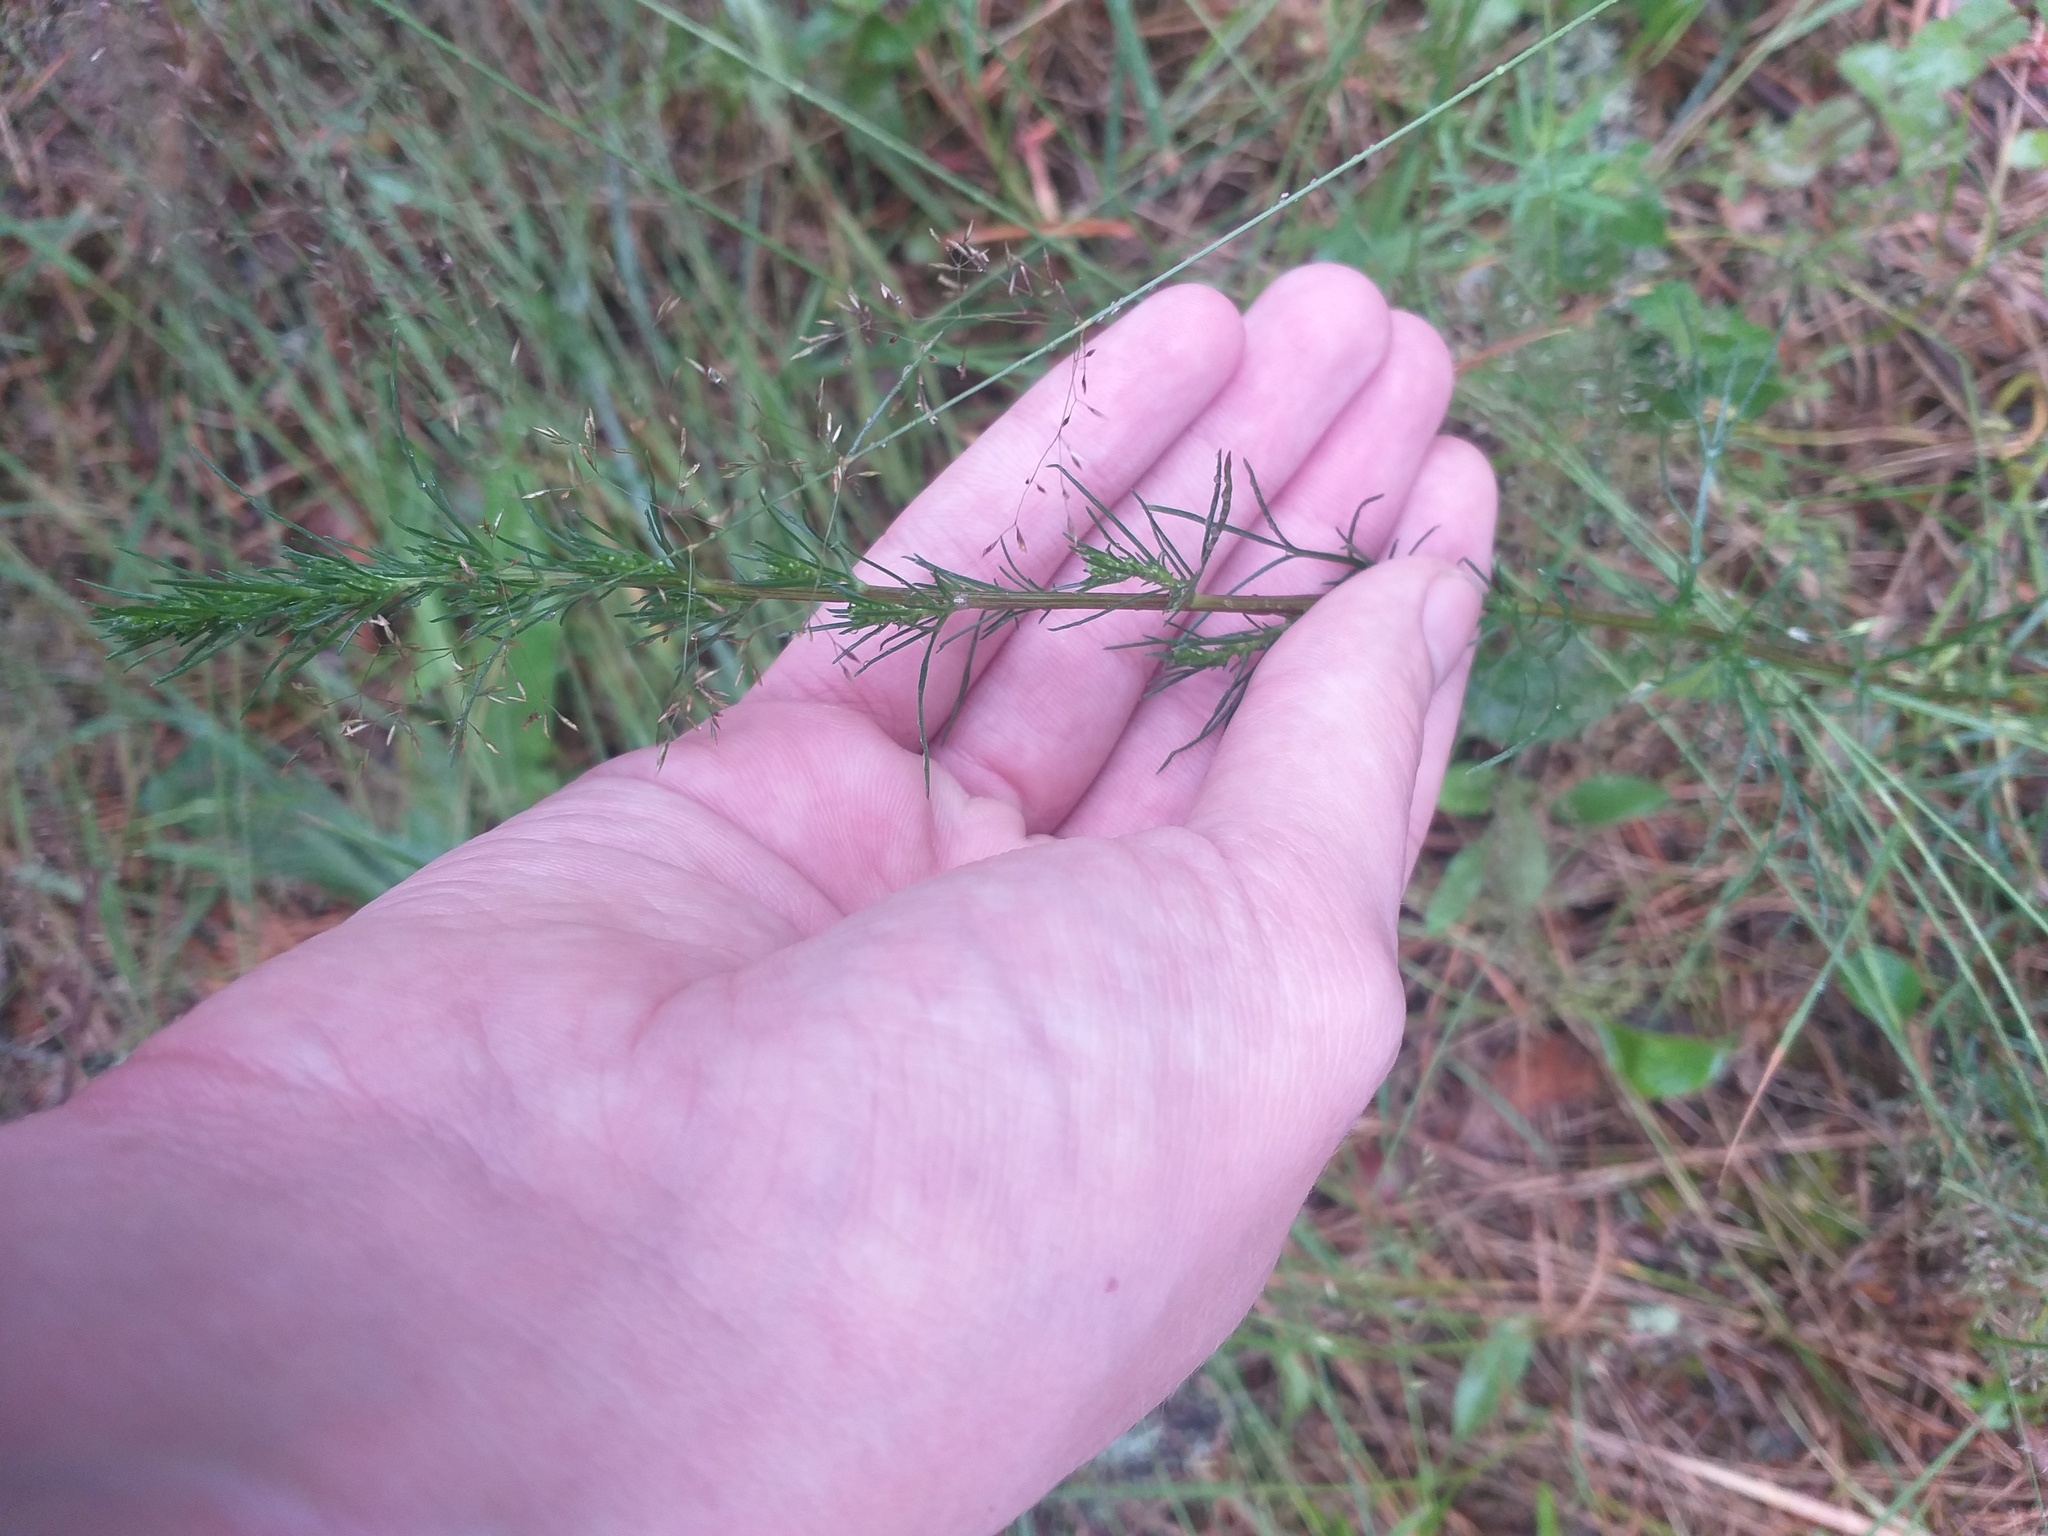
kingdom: Plantae
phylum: Tracheophyta
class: Magnoliopsida
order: Asterales
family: Asteraceae
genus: Artemisia
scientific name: Artemisia campestris
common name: Field wormwood
